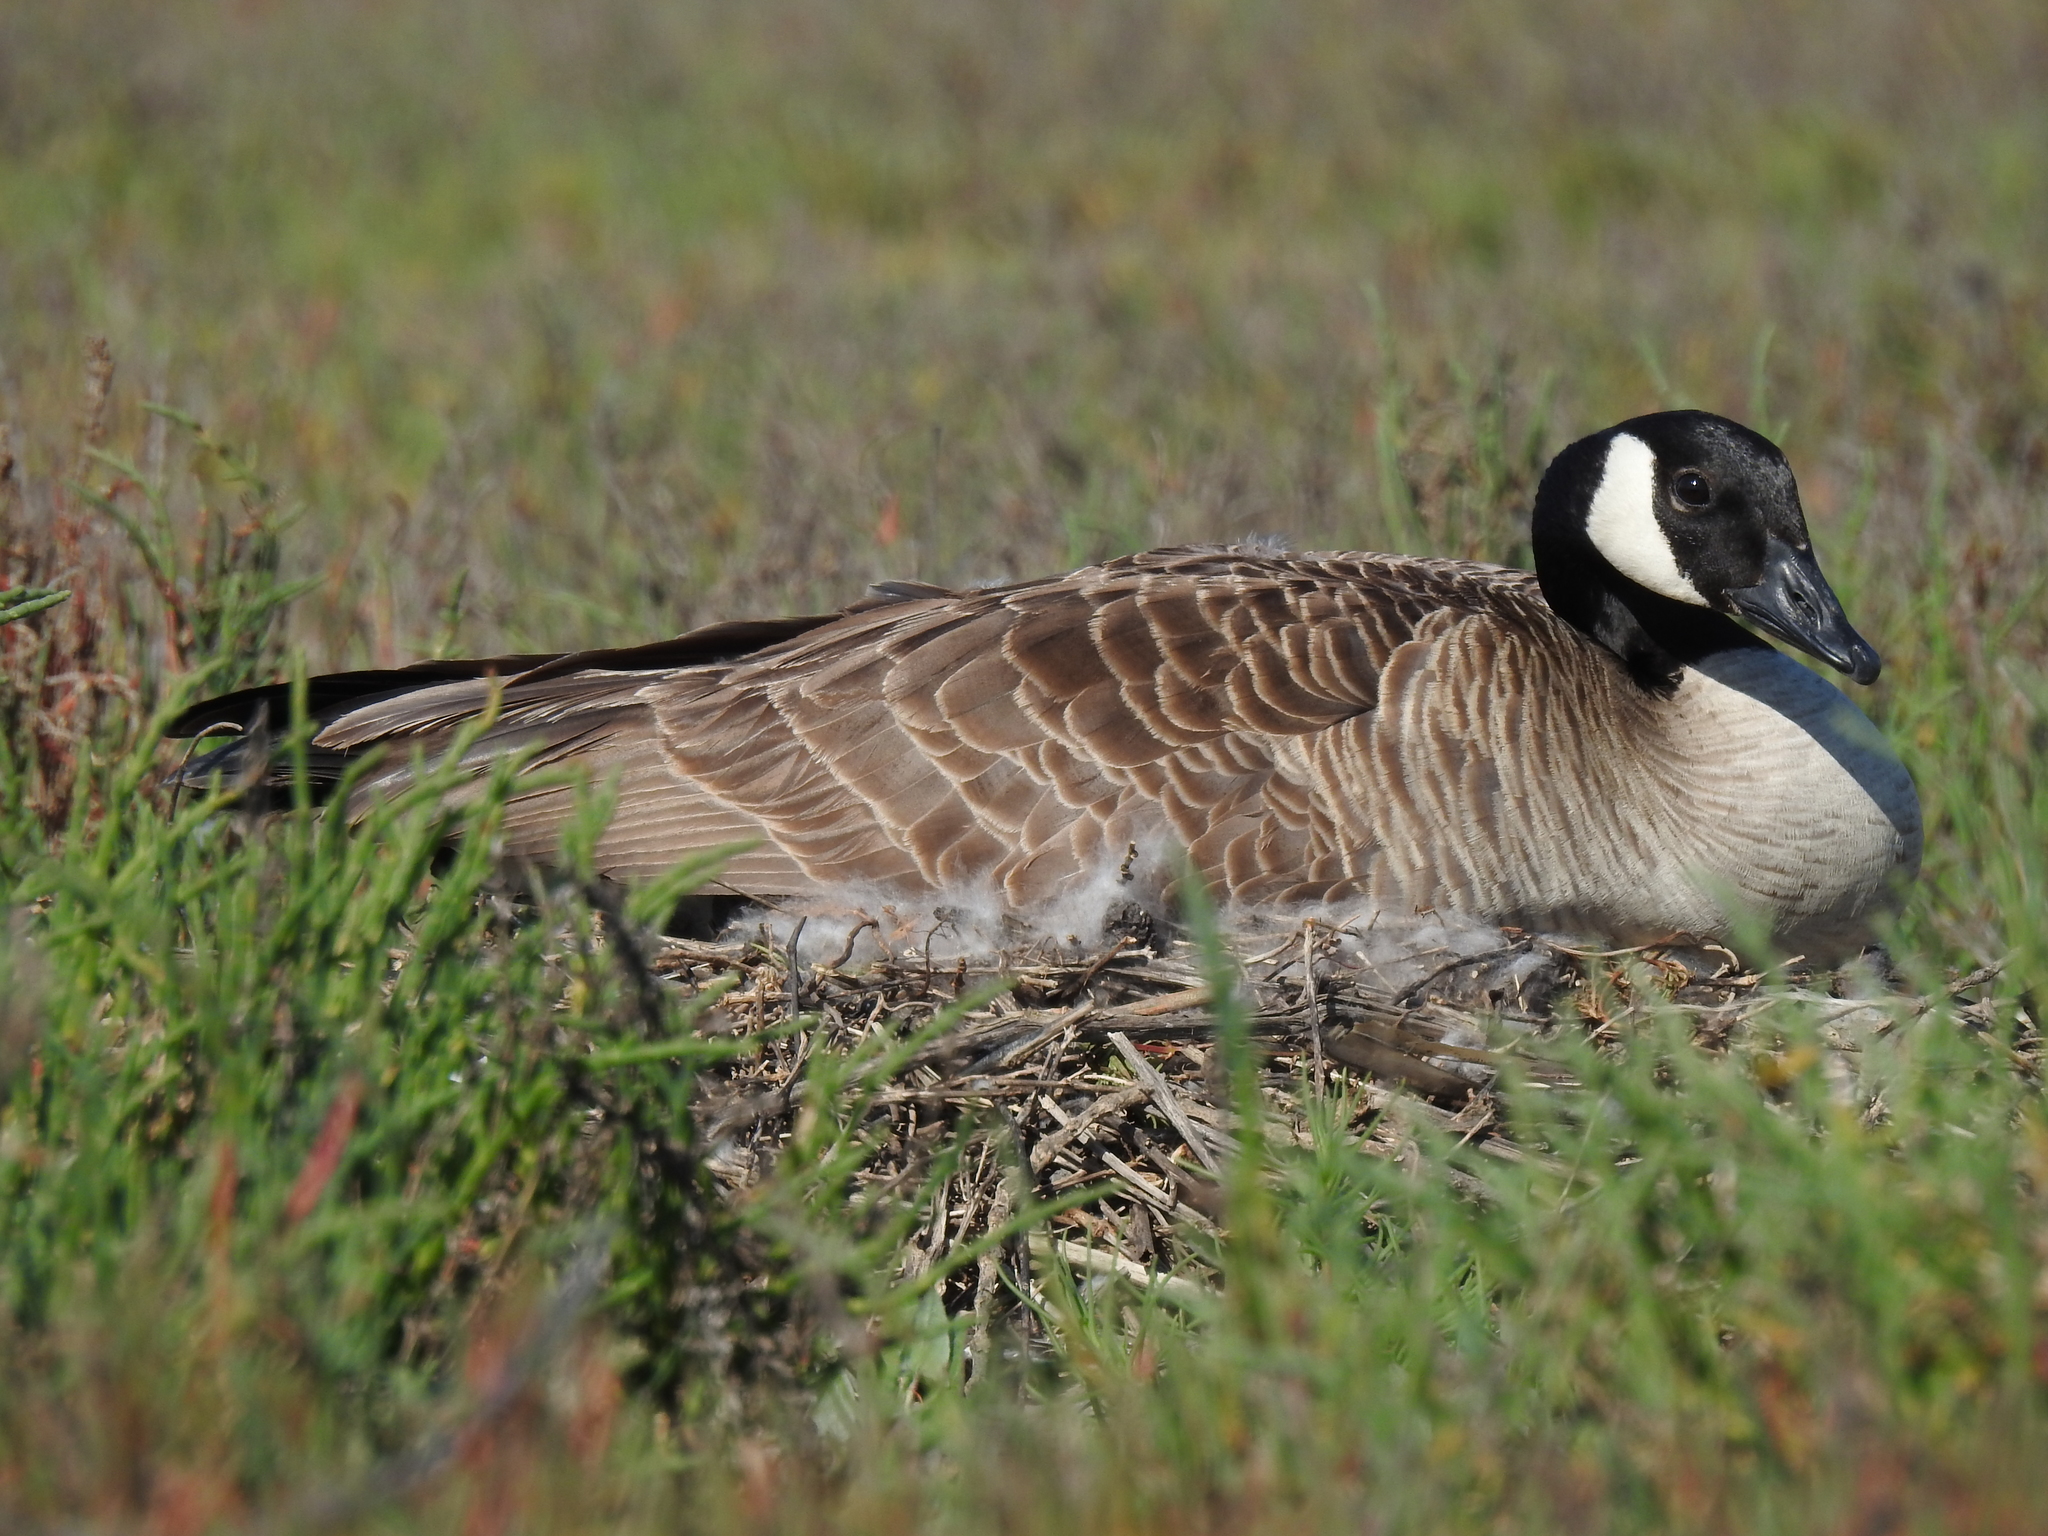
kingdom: Animalia
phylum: Chordata
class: Aves
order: Anseriformes
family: Anatidae
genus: Branta
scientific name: Branta canadensis
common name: Canada goose
